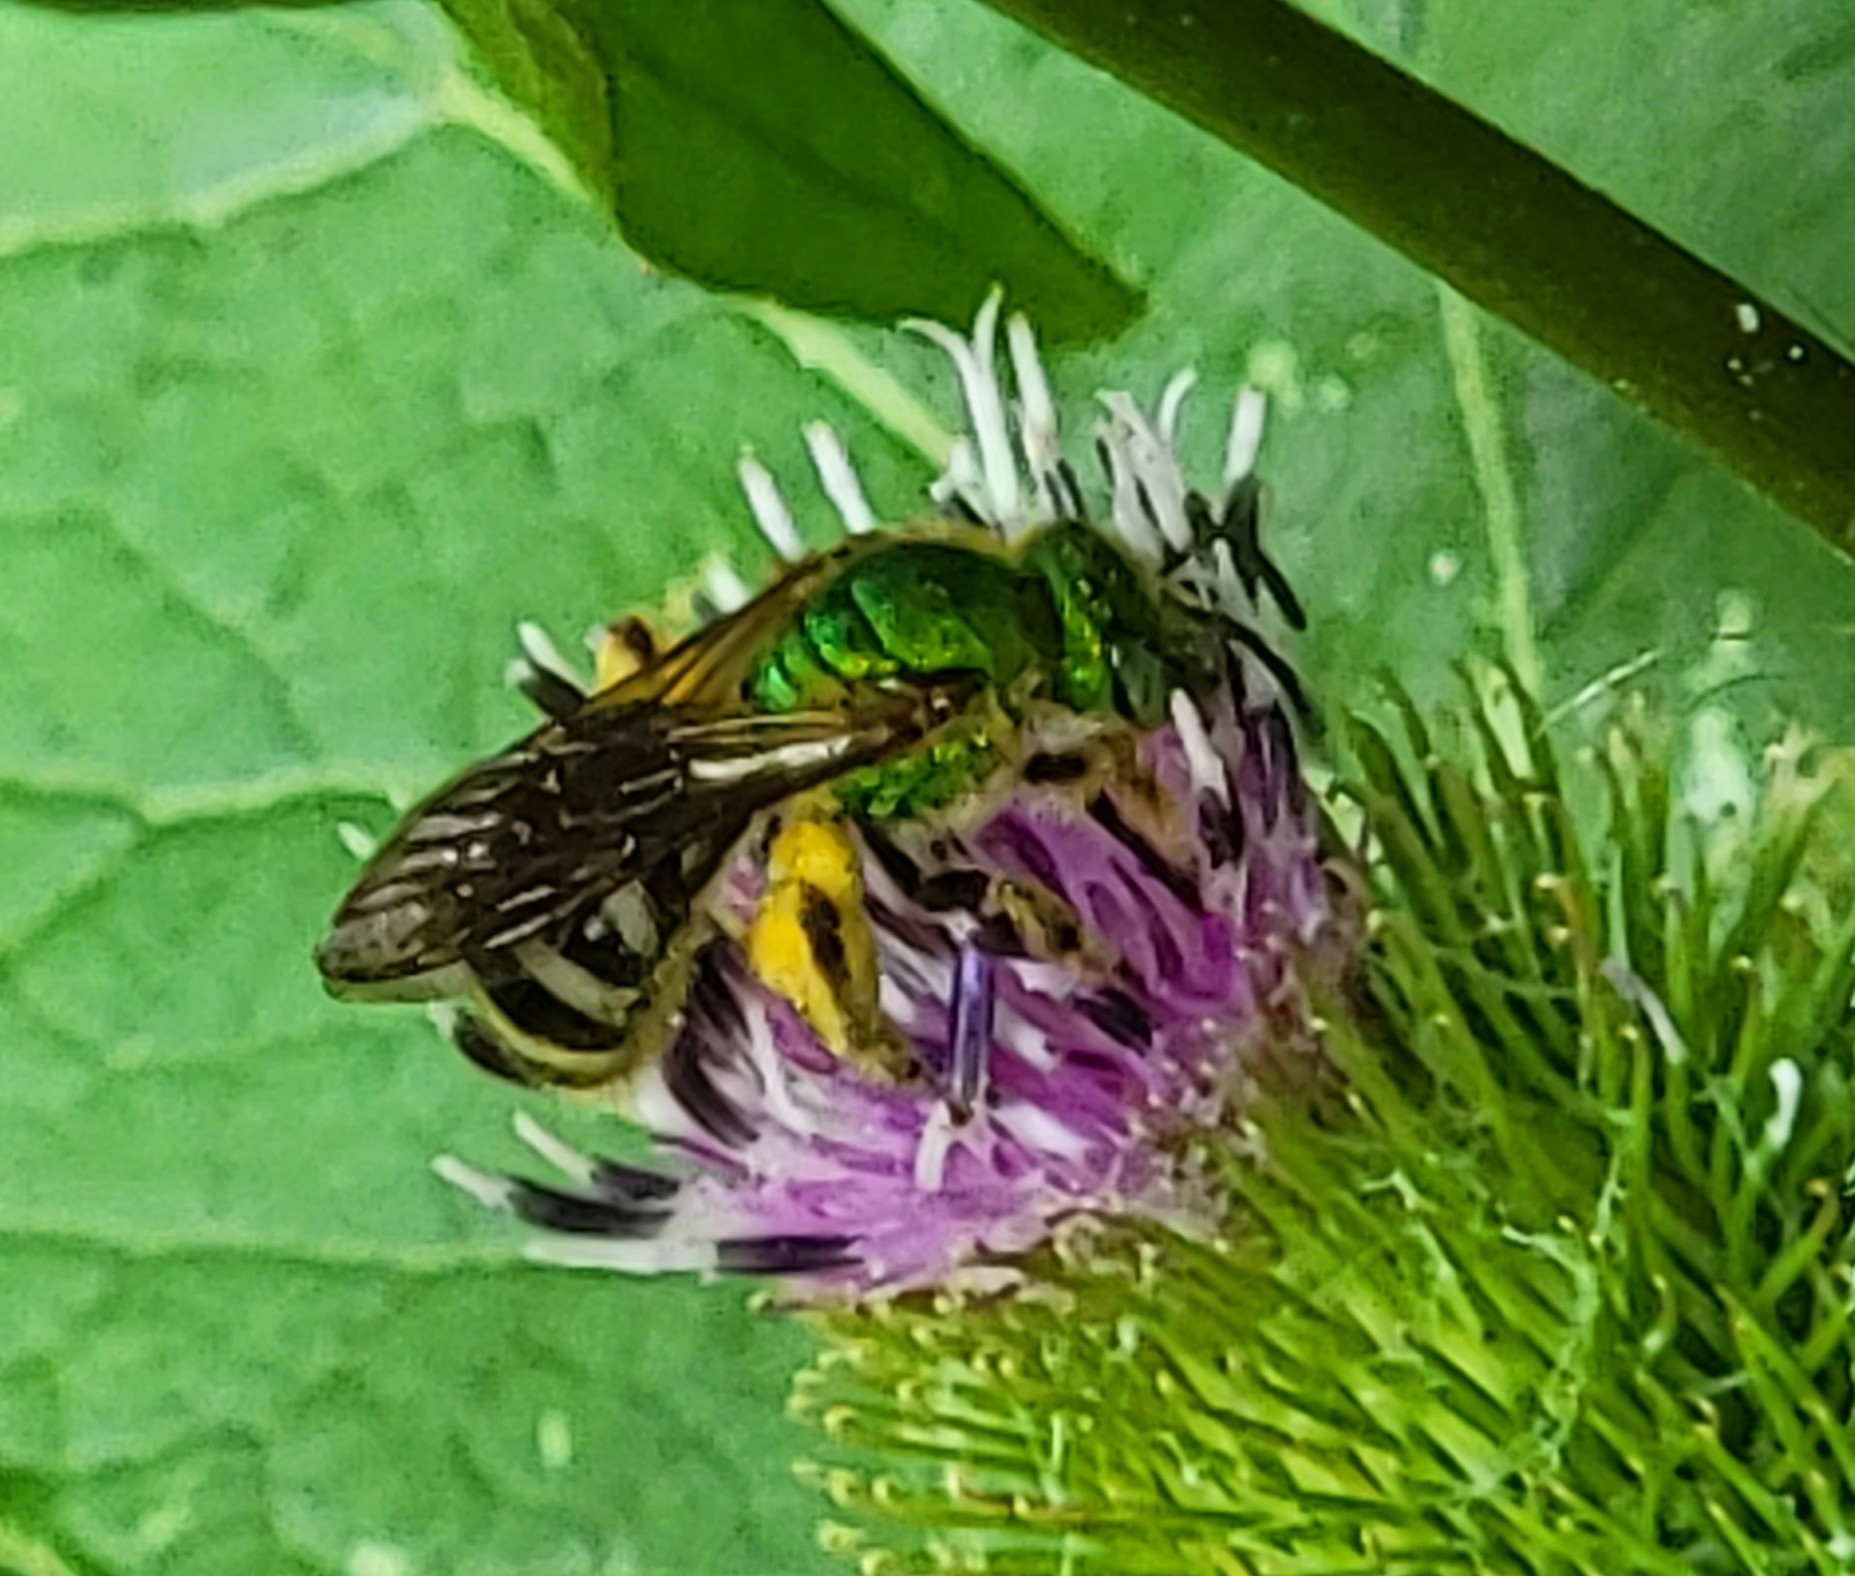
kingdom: Animalia
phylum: Arthropoda
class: Insecta
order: Hymenoptera
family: Halictidae
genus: Agapostemon
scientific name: Agapostemon virescens
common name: Bicolored striped sweat bee
